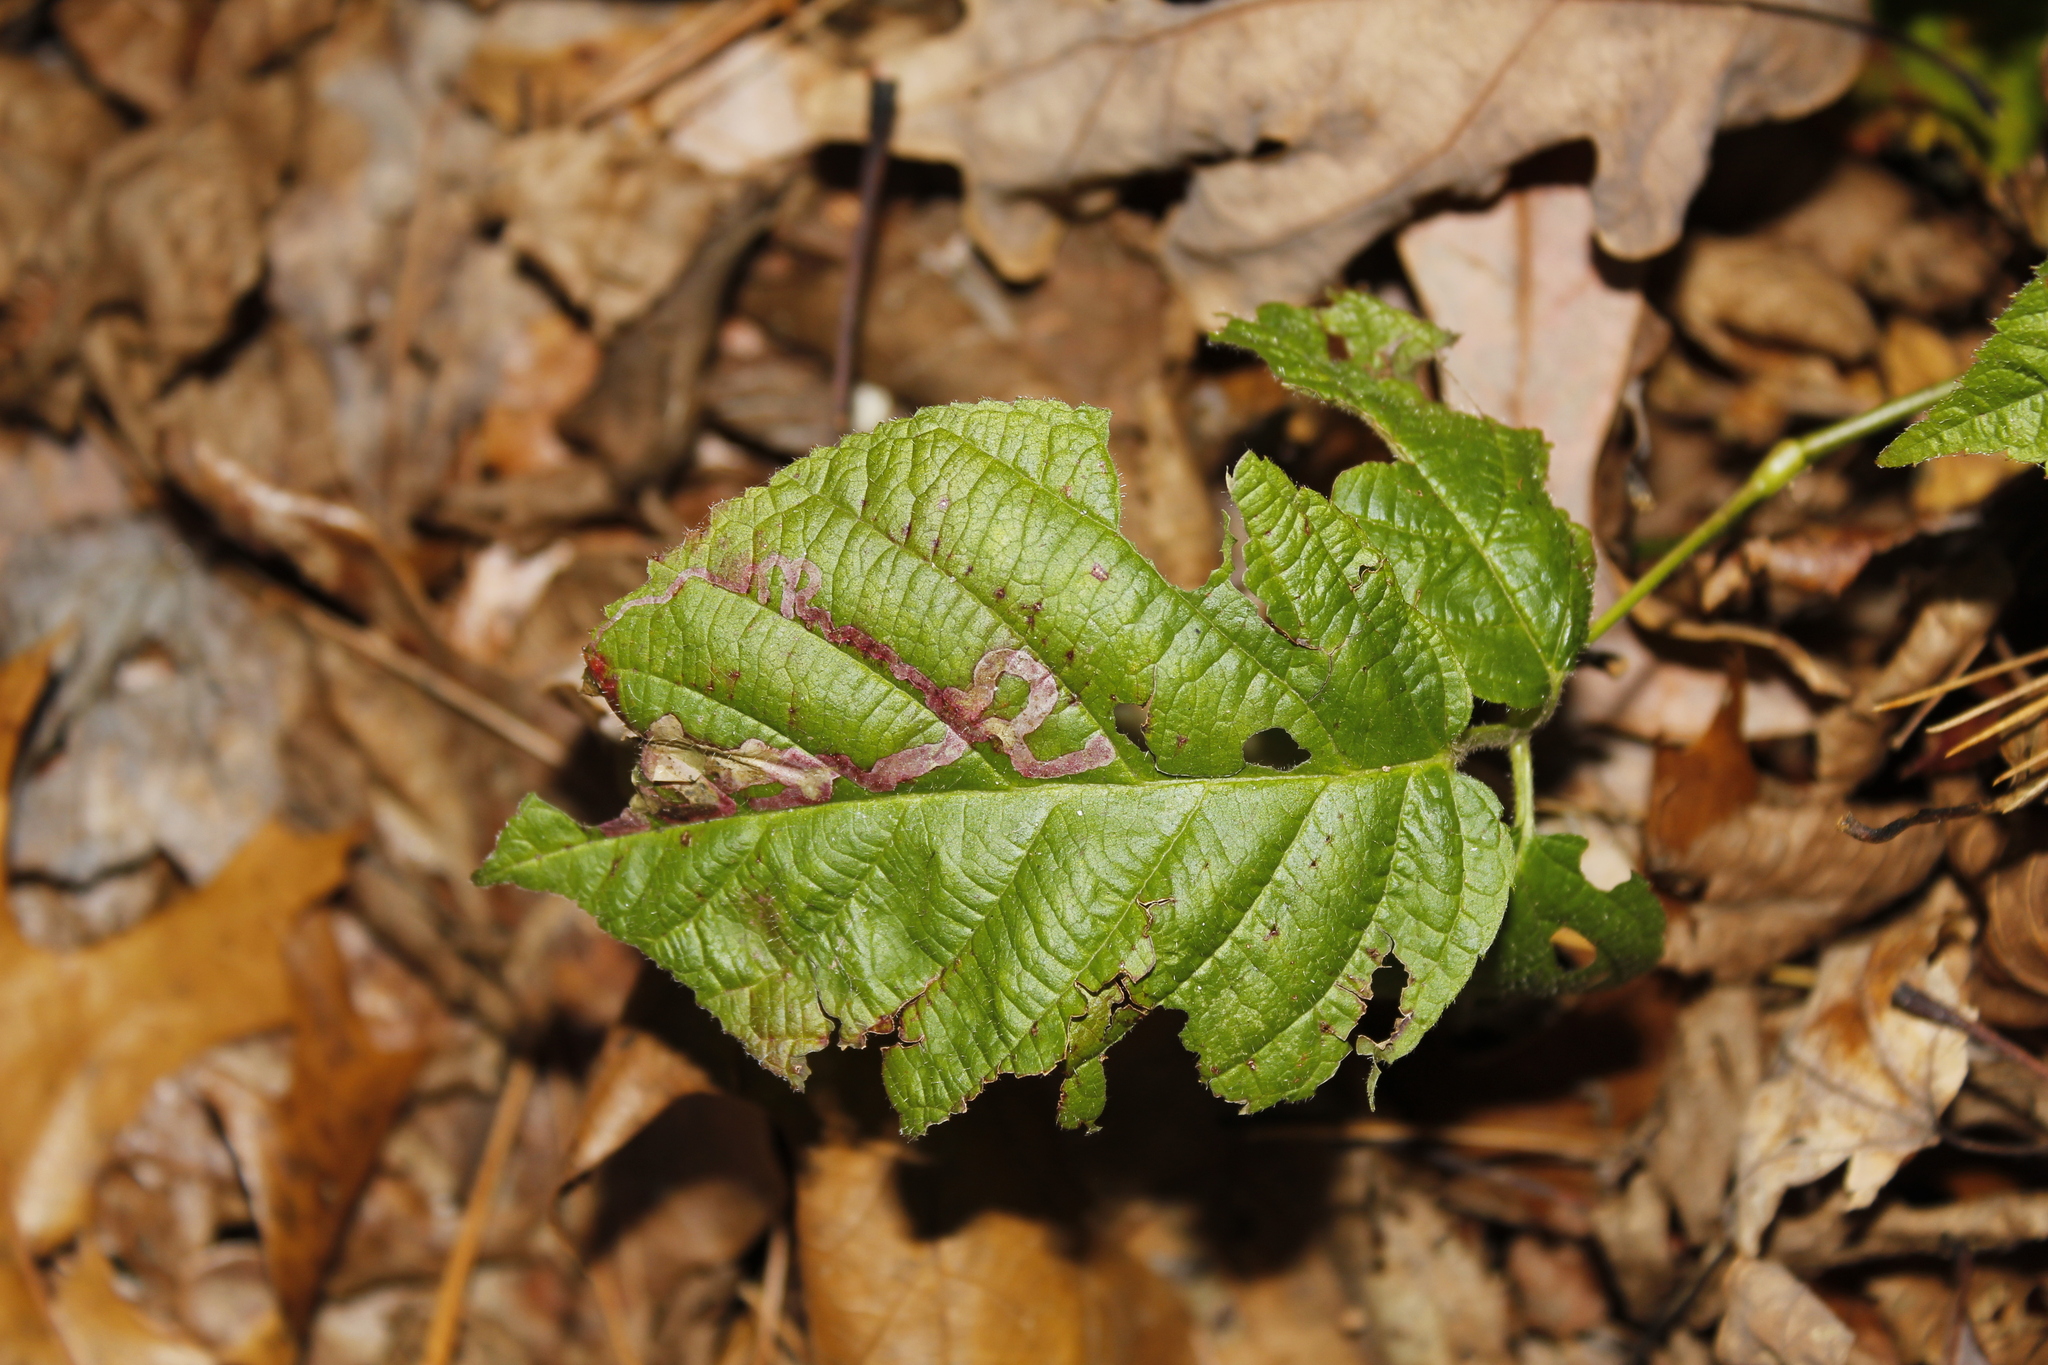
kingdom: Animalia
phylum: Arthropoda
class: Insecta
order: Diptera
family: Agromyzidae
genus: Agromyza
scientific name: Agromyza vockerothi
